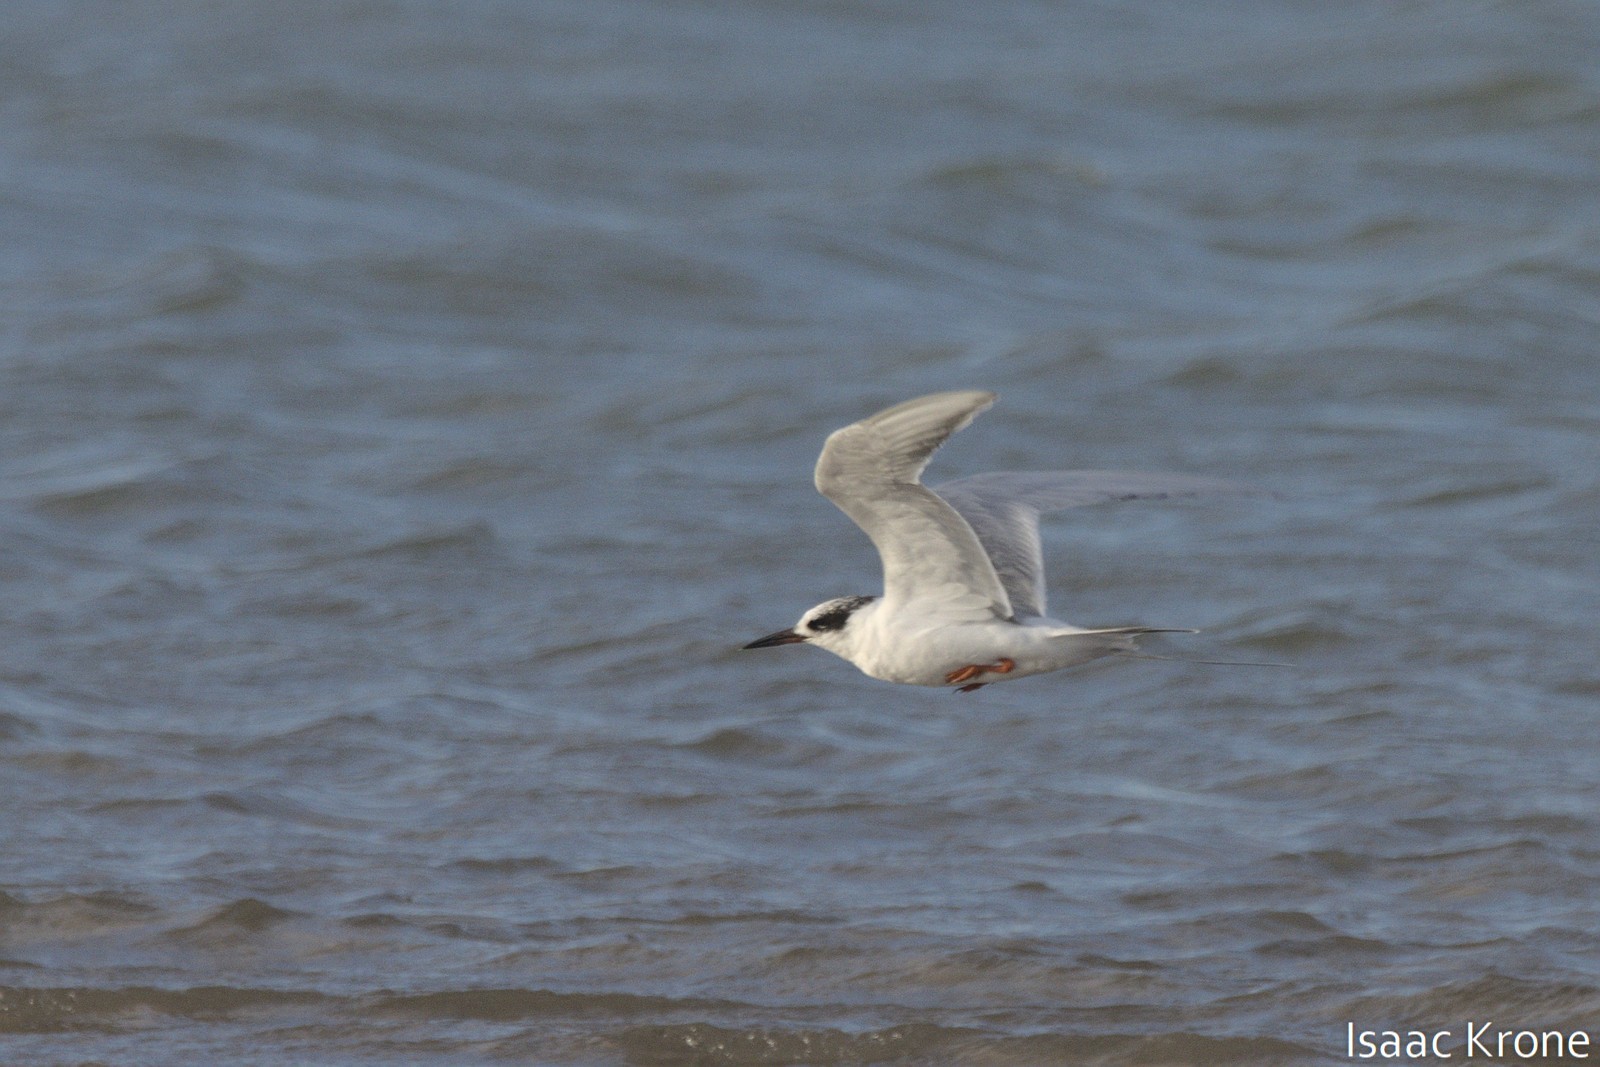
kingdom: Animalia
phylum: Chordata
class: Aves
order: Charadriiformes
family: Laridae
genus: Sterna
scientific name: Sterna forsteri
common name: Forster's tern
